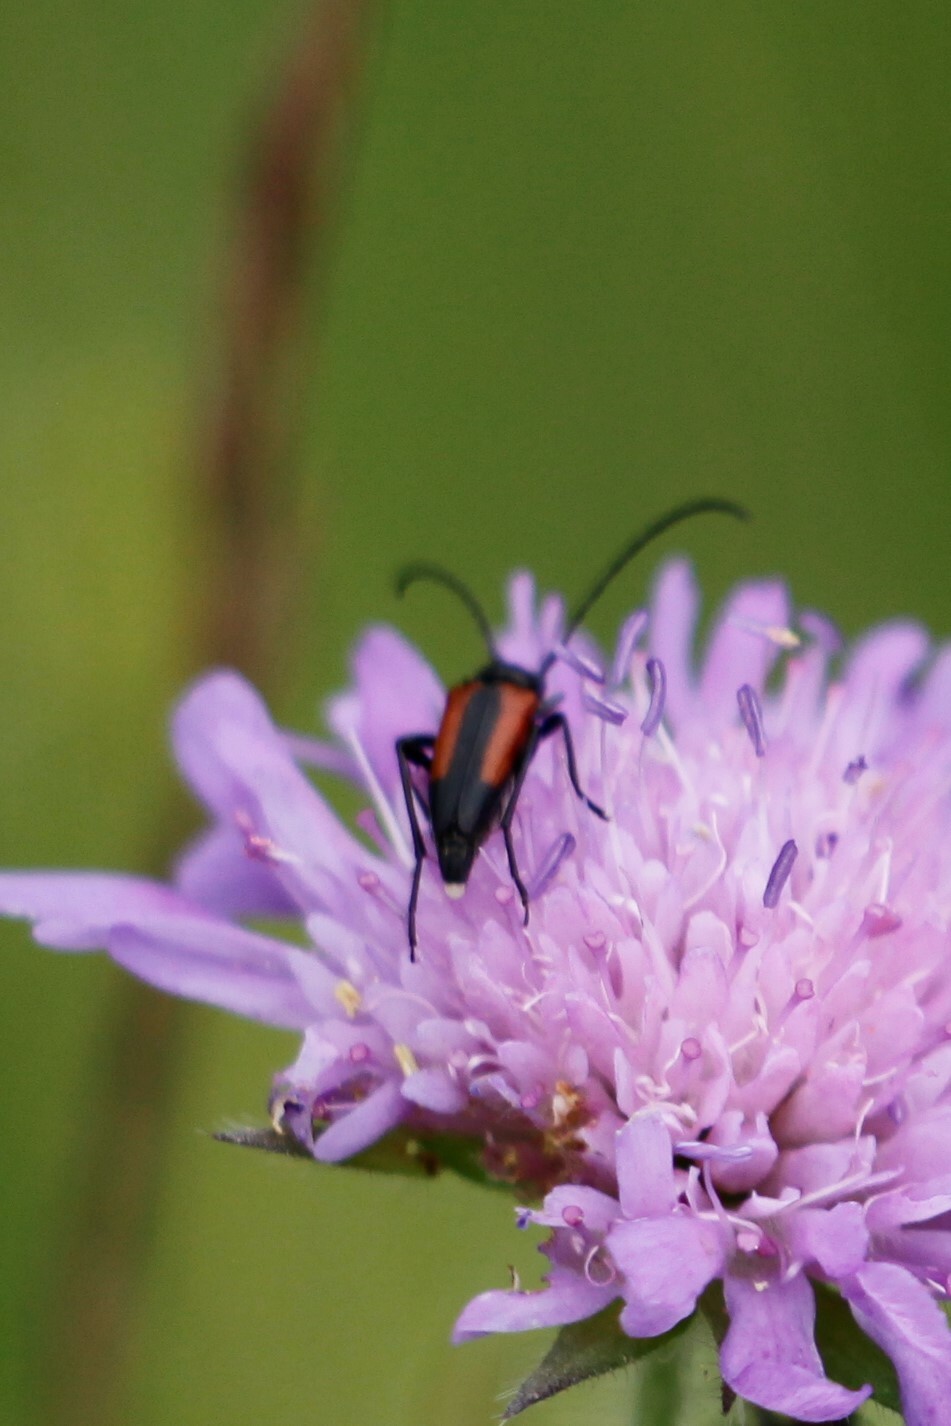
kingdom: Animalia
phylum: Arthropoda
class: Insecta
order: Coleoptera
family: Cerambycidae
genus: Stenurella
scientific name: Stenurella melanura
